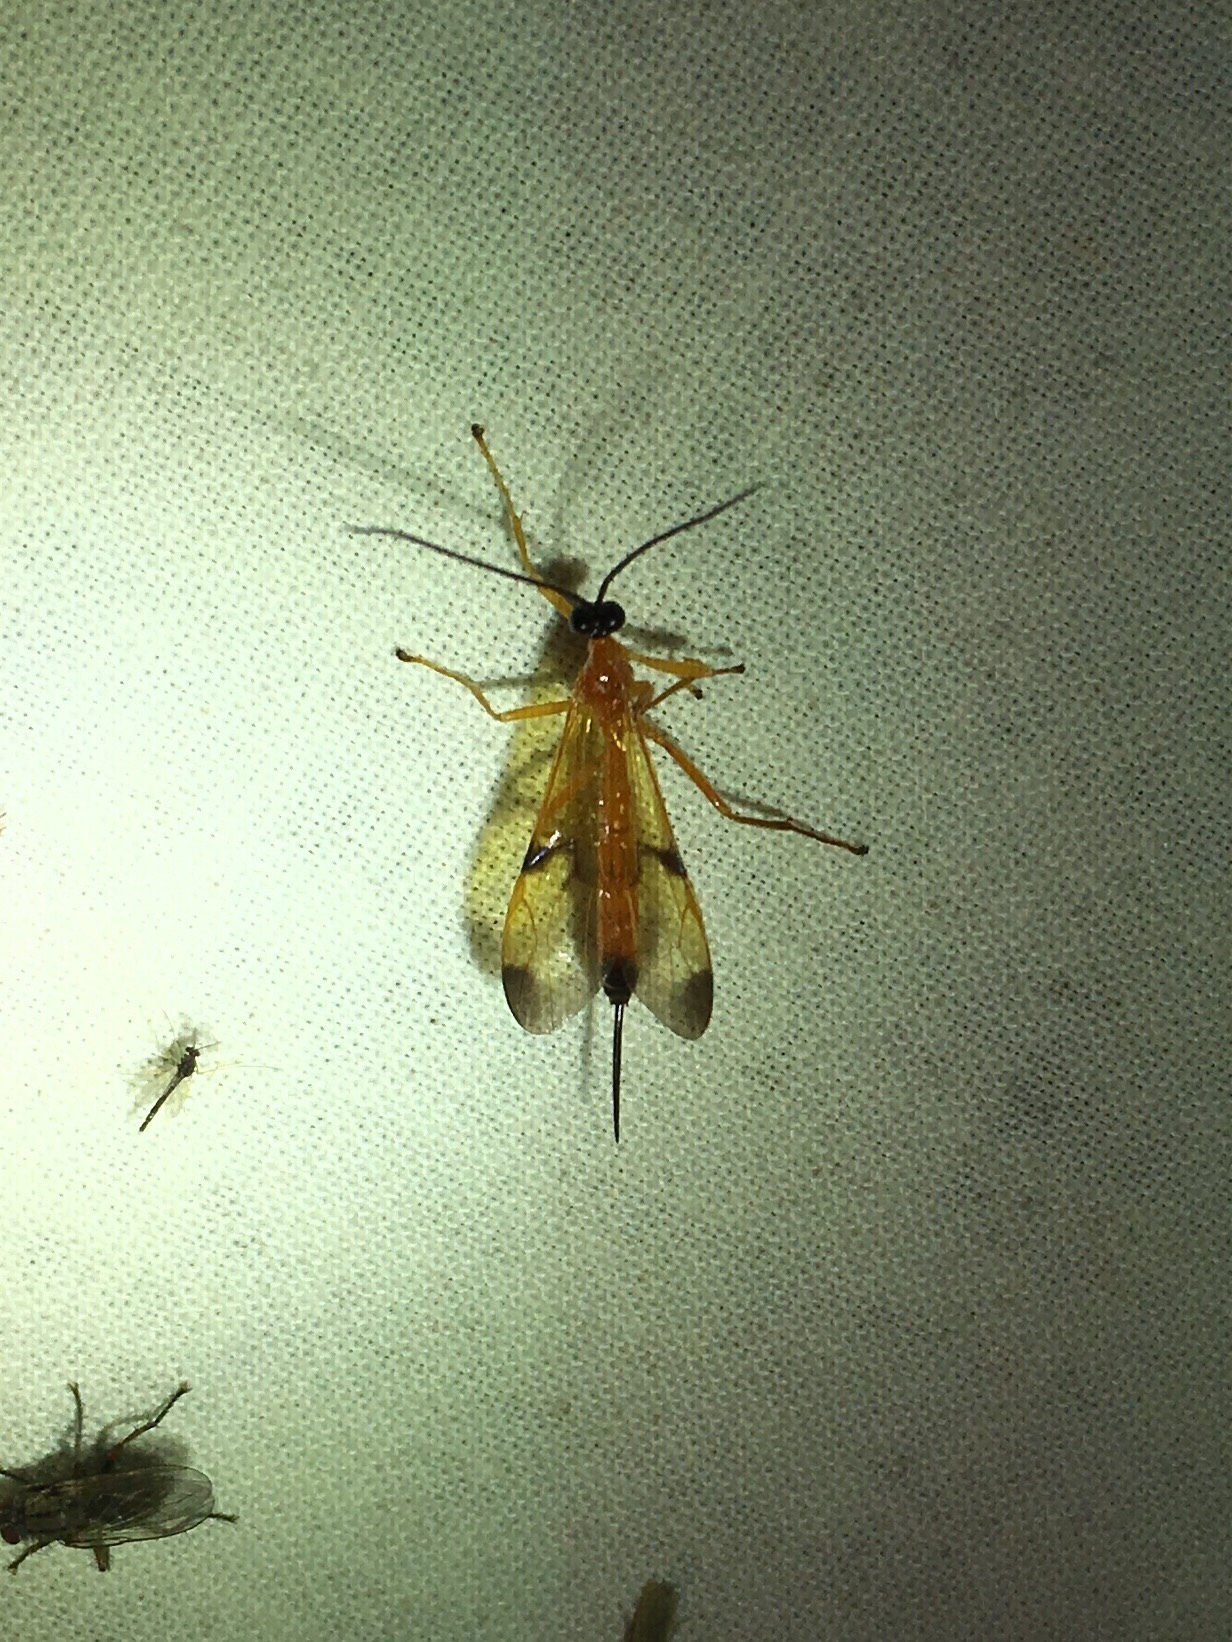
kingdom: Animalia
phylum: Arthropoda
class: Insecta
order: Hymenoptera
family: Ichneumonidae
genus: Acrotaphus
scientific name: Acrotaphus wiltii
